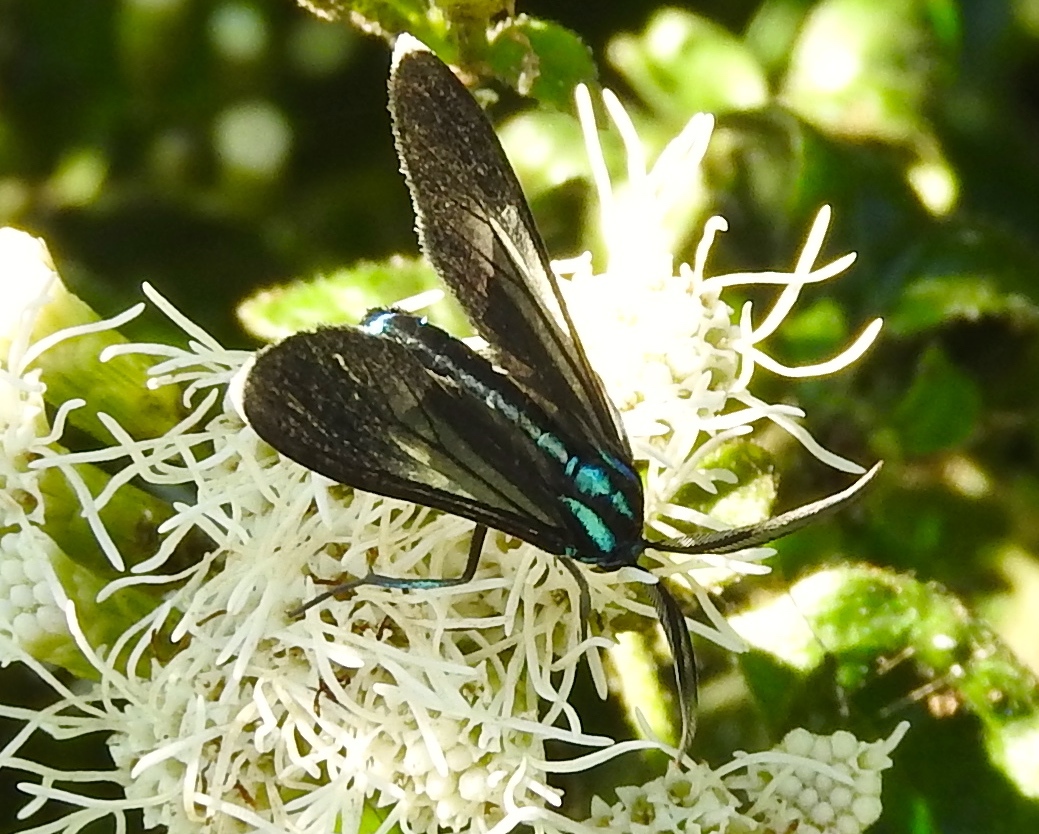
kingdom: Animalia
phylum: Arthropoda
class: Insecta
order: Lepidoptera
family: Erebidae
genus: Uranophora
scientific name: Uranophora leucotela
